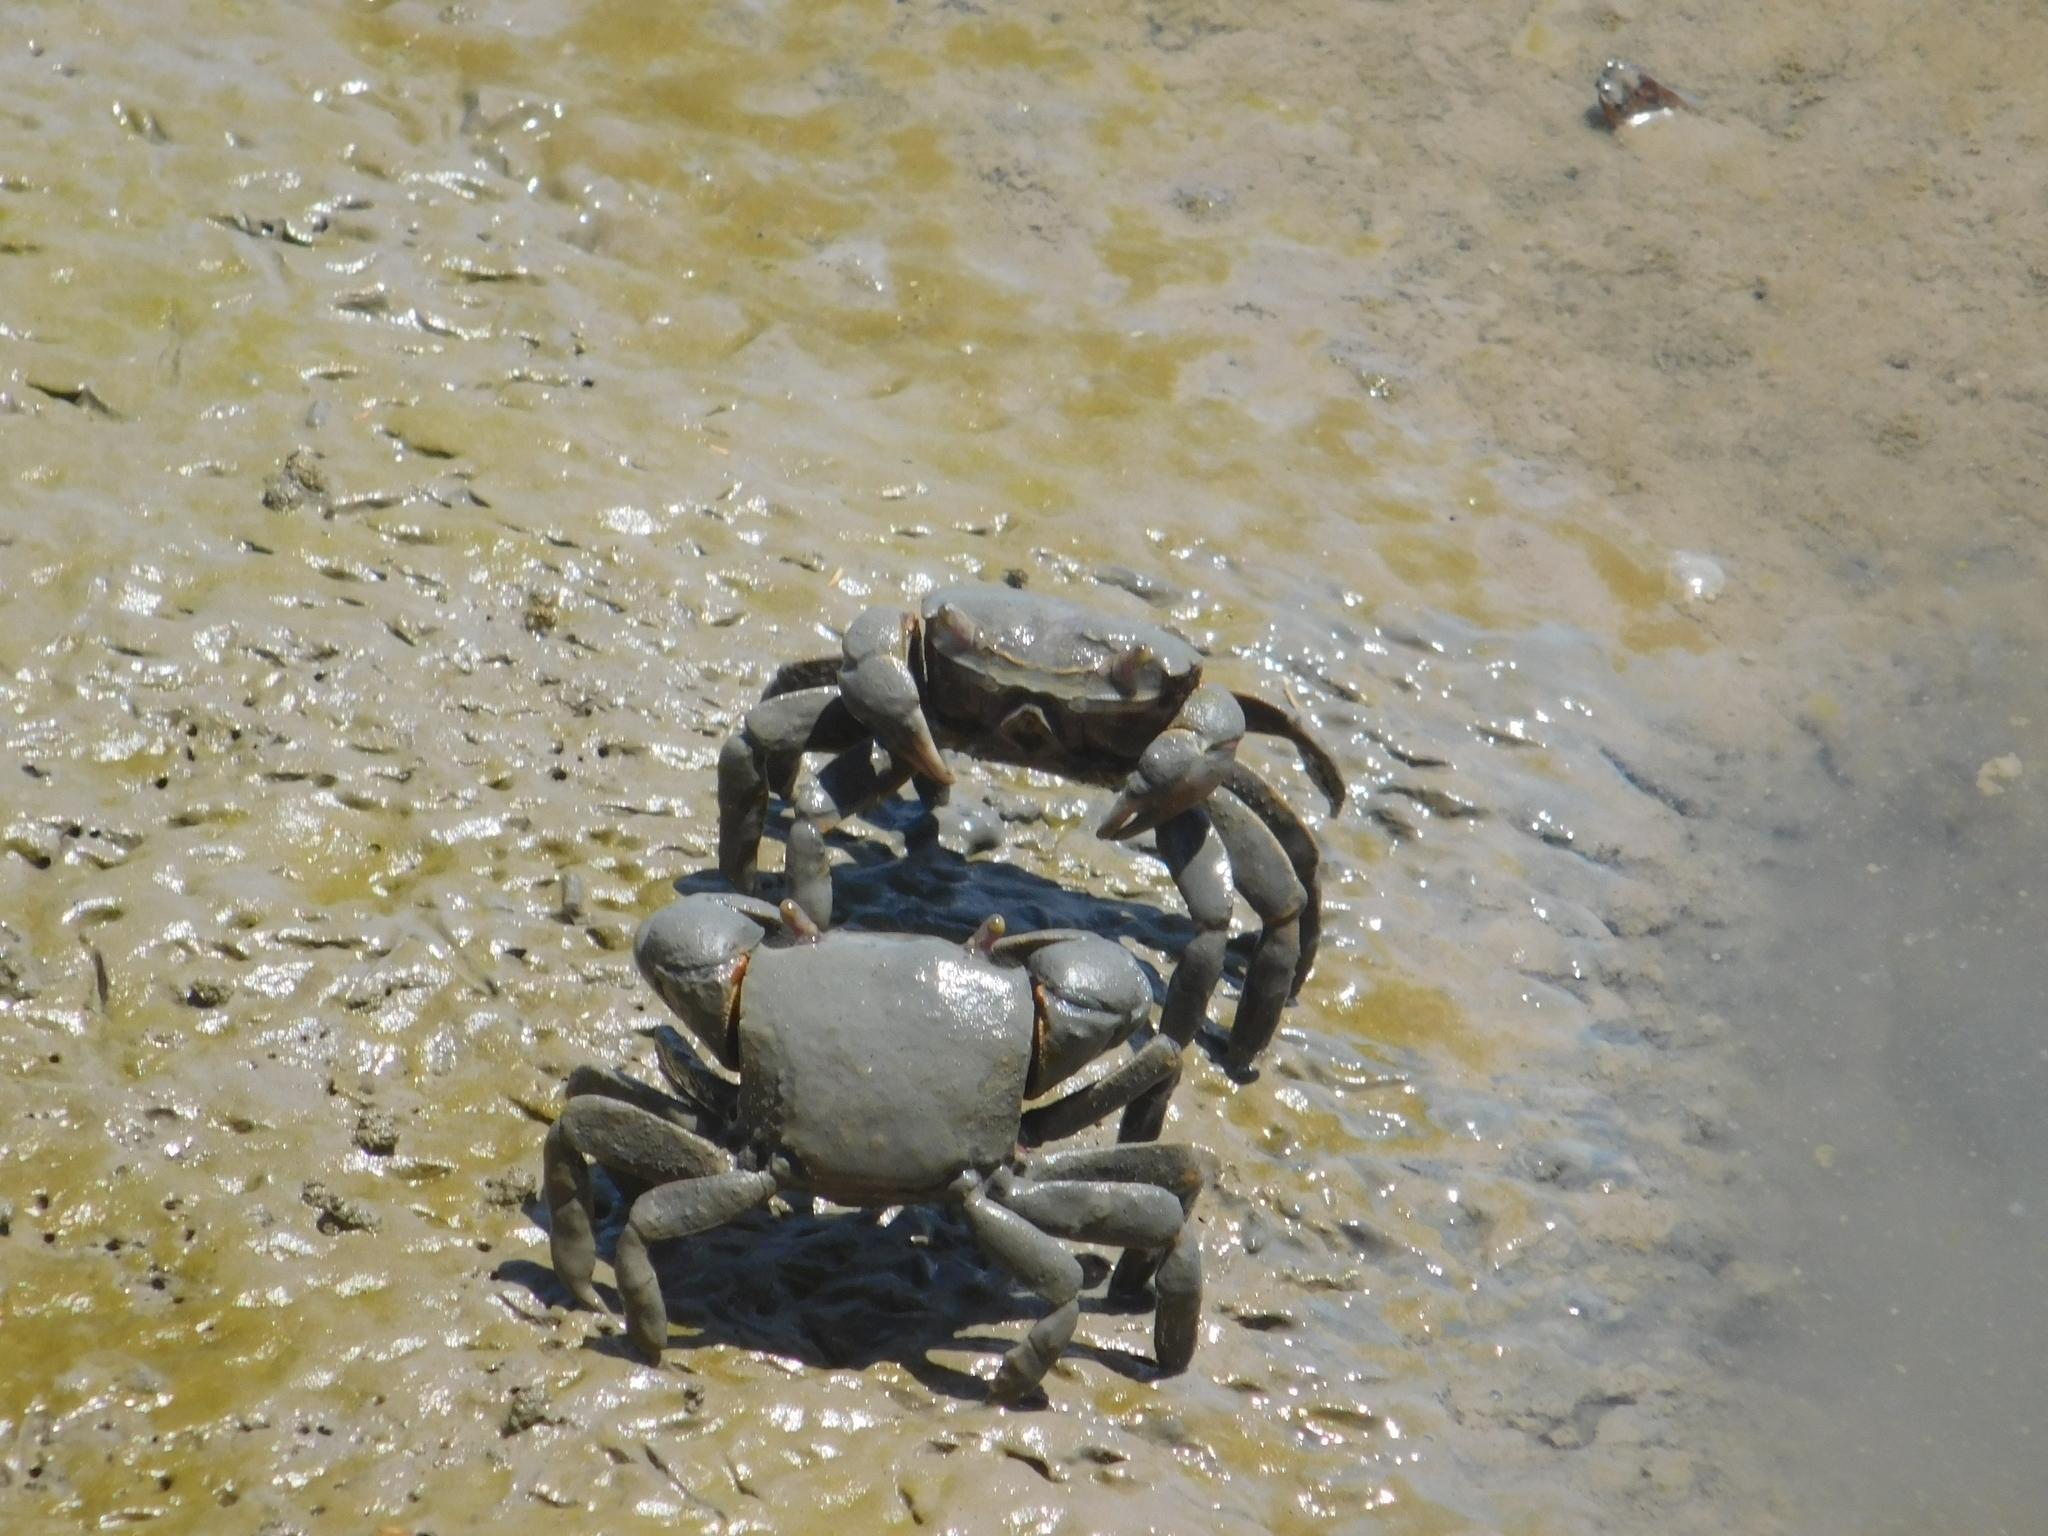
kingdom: Animalia
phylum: Arthropoda
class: Malacostraca
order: Decapoda
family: Varunidae
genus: Neohelice
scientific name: Neohelice granulata
